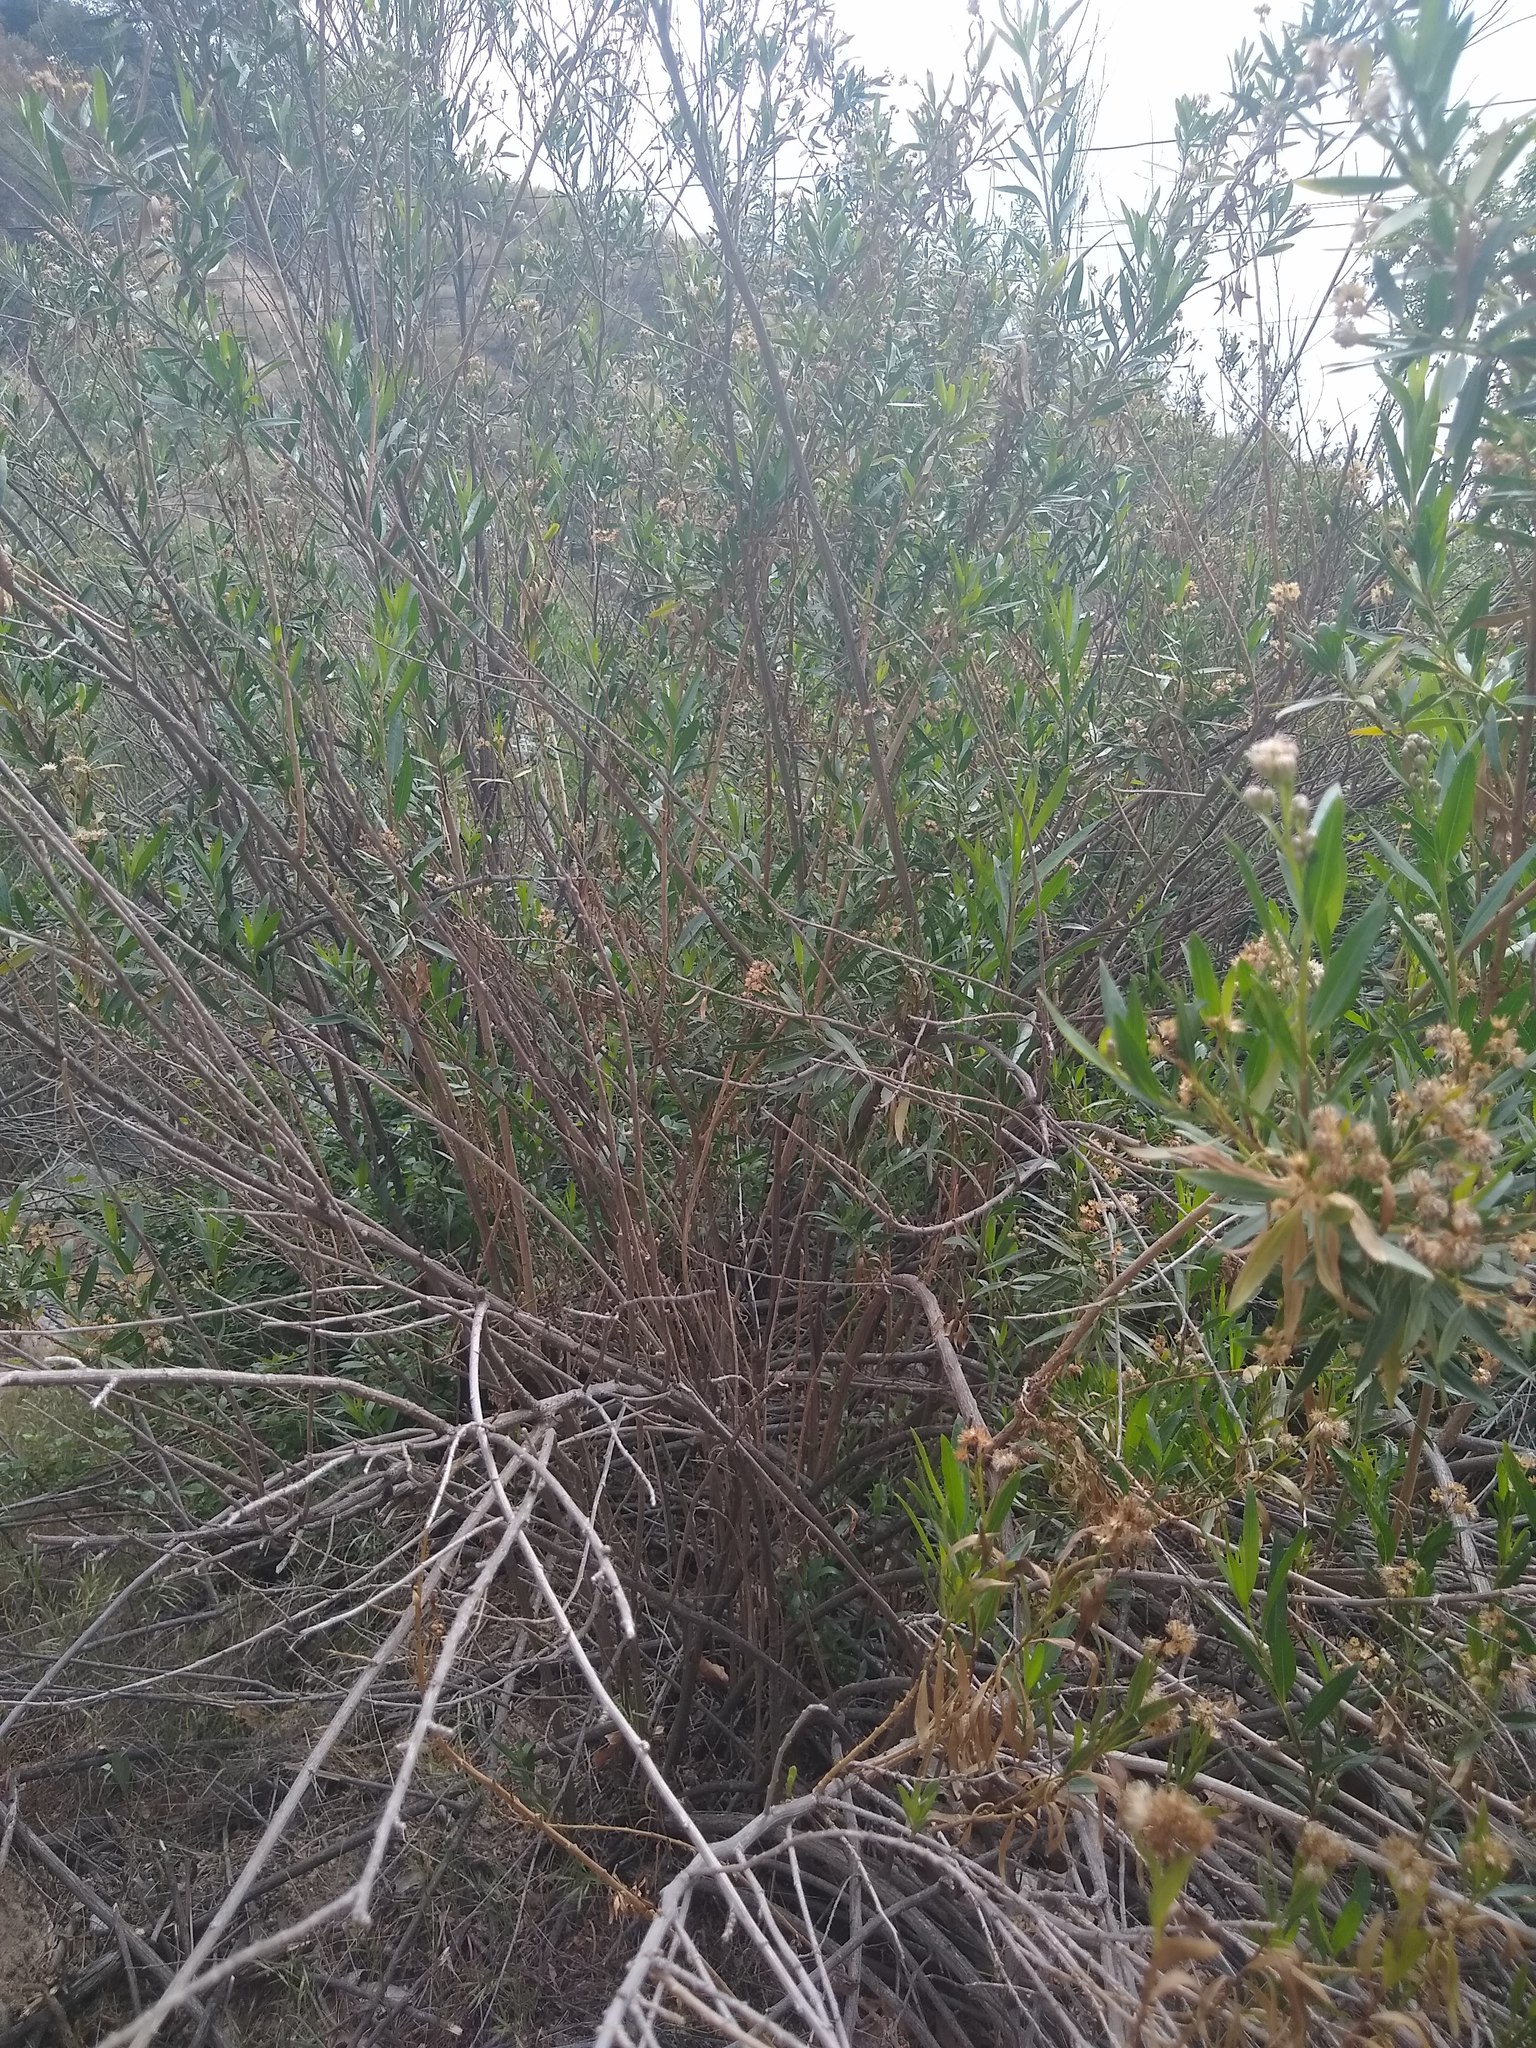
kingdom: Plantae
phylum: Tracheophyta
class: Magnoliopsida
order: Asterales
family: Asteraceae
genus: Baccharis
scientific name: Baccharis salicifolia
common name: Sticky baccharis
